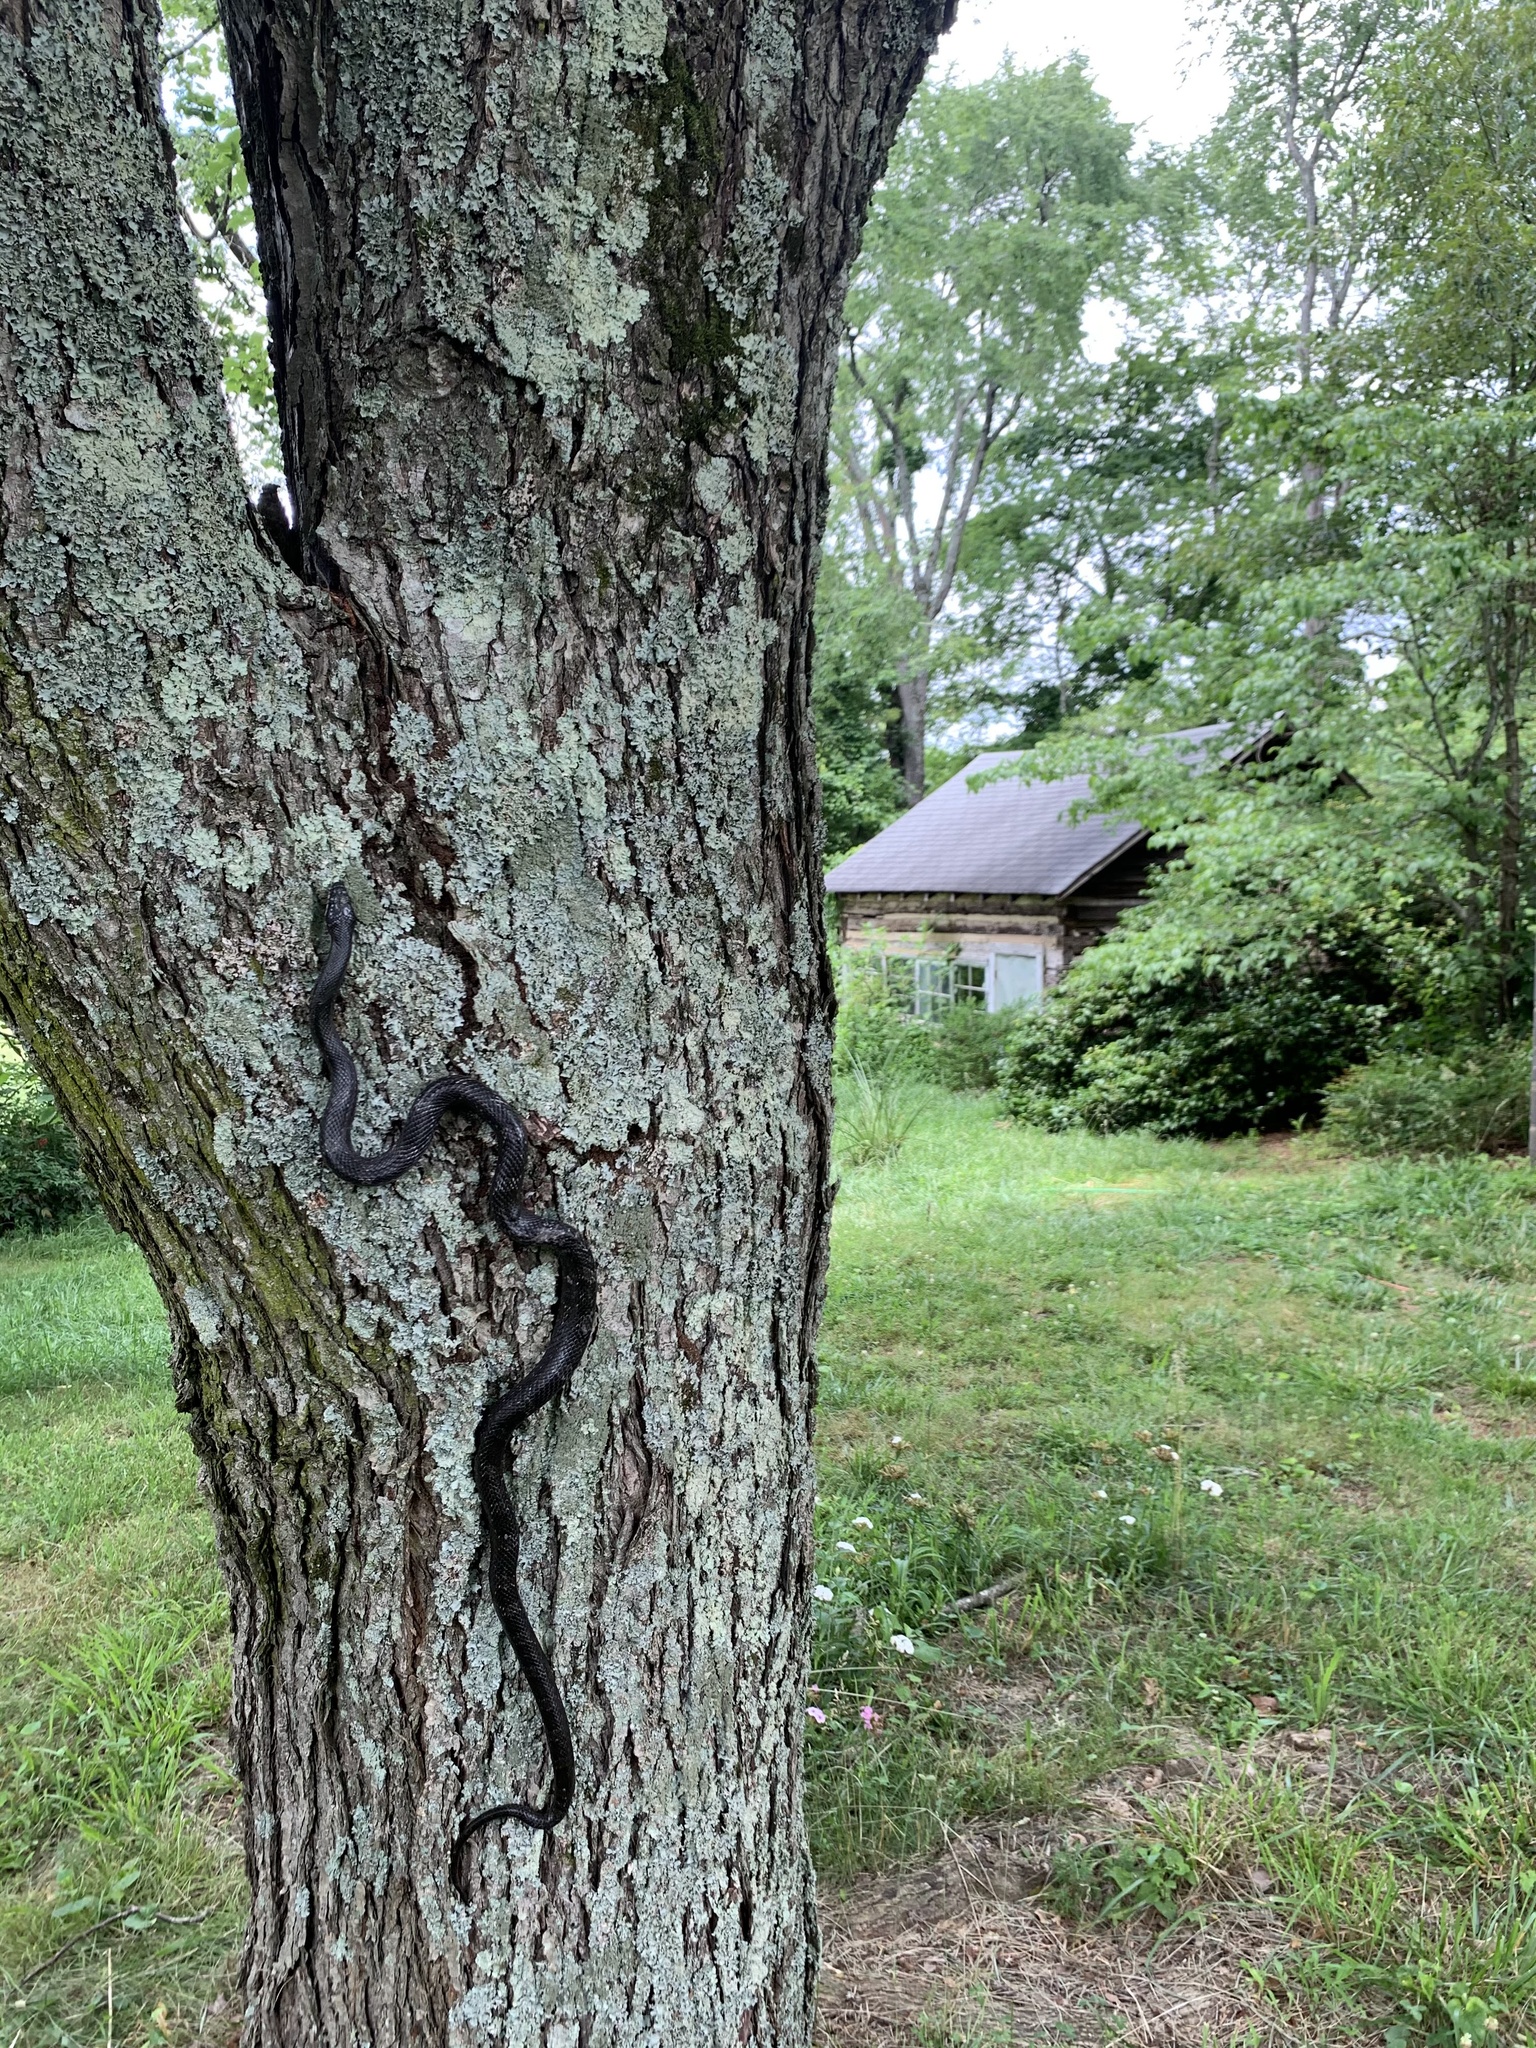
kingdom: Animalia
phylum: Chordata
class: Squamata
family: Colubridae
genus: Pantherophis
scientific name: Pantherophis
